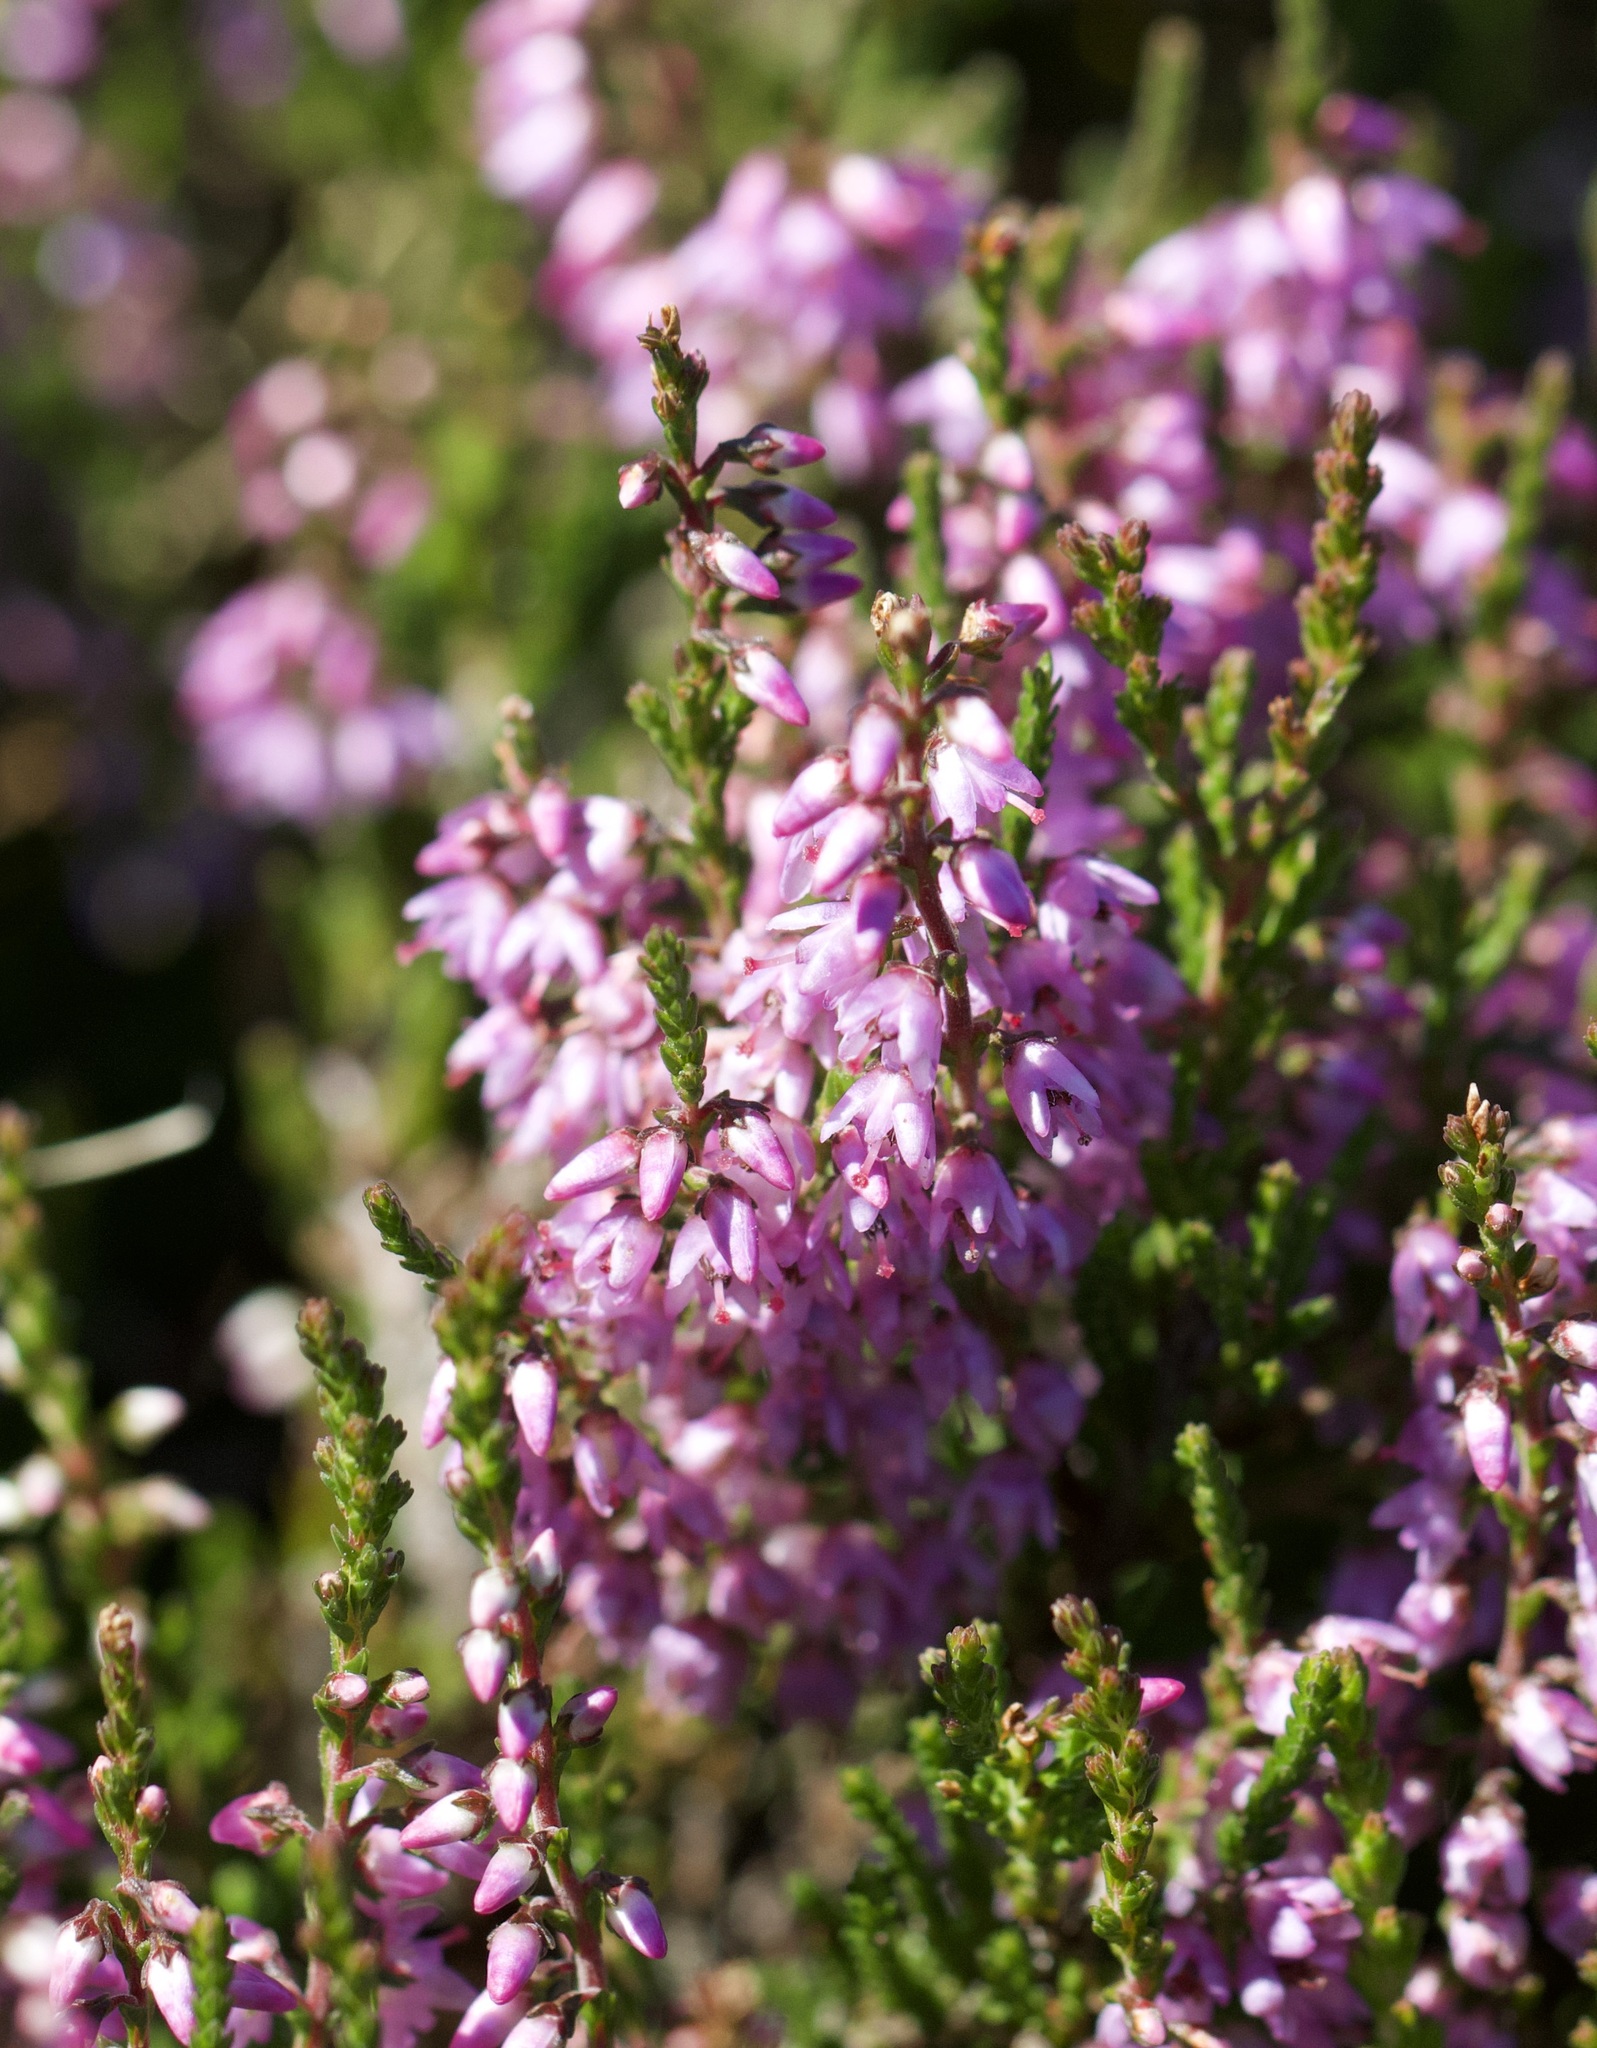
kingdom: Plantae
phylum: Tracheophyta
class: Magnoliopsida
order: Ericales
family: Ericaceae
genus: Calluna
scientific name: Calluna vulgaris
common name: Heather
